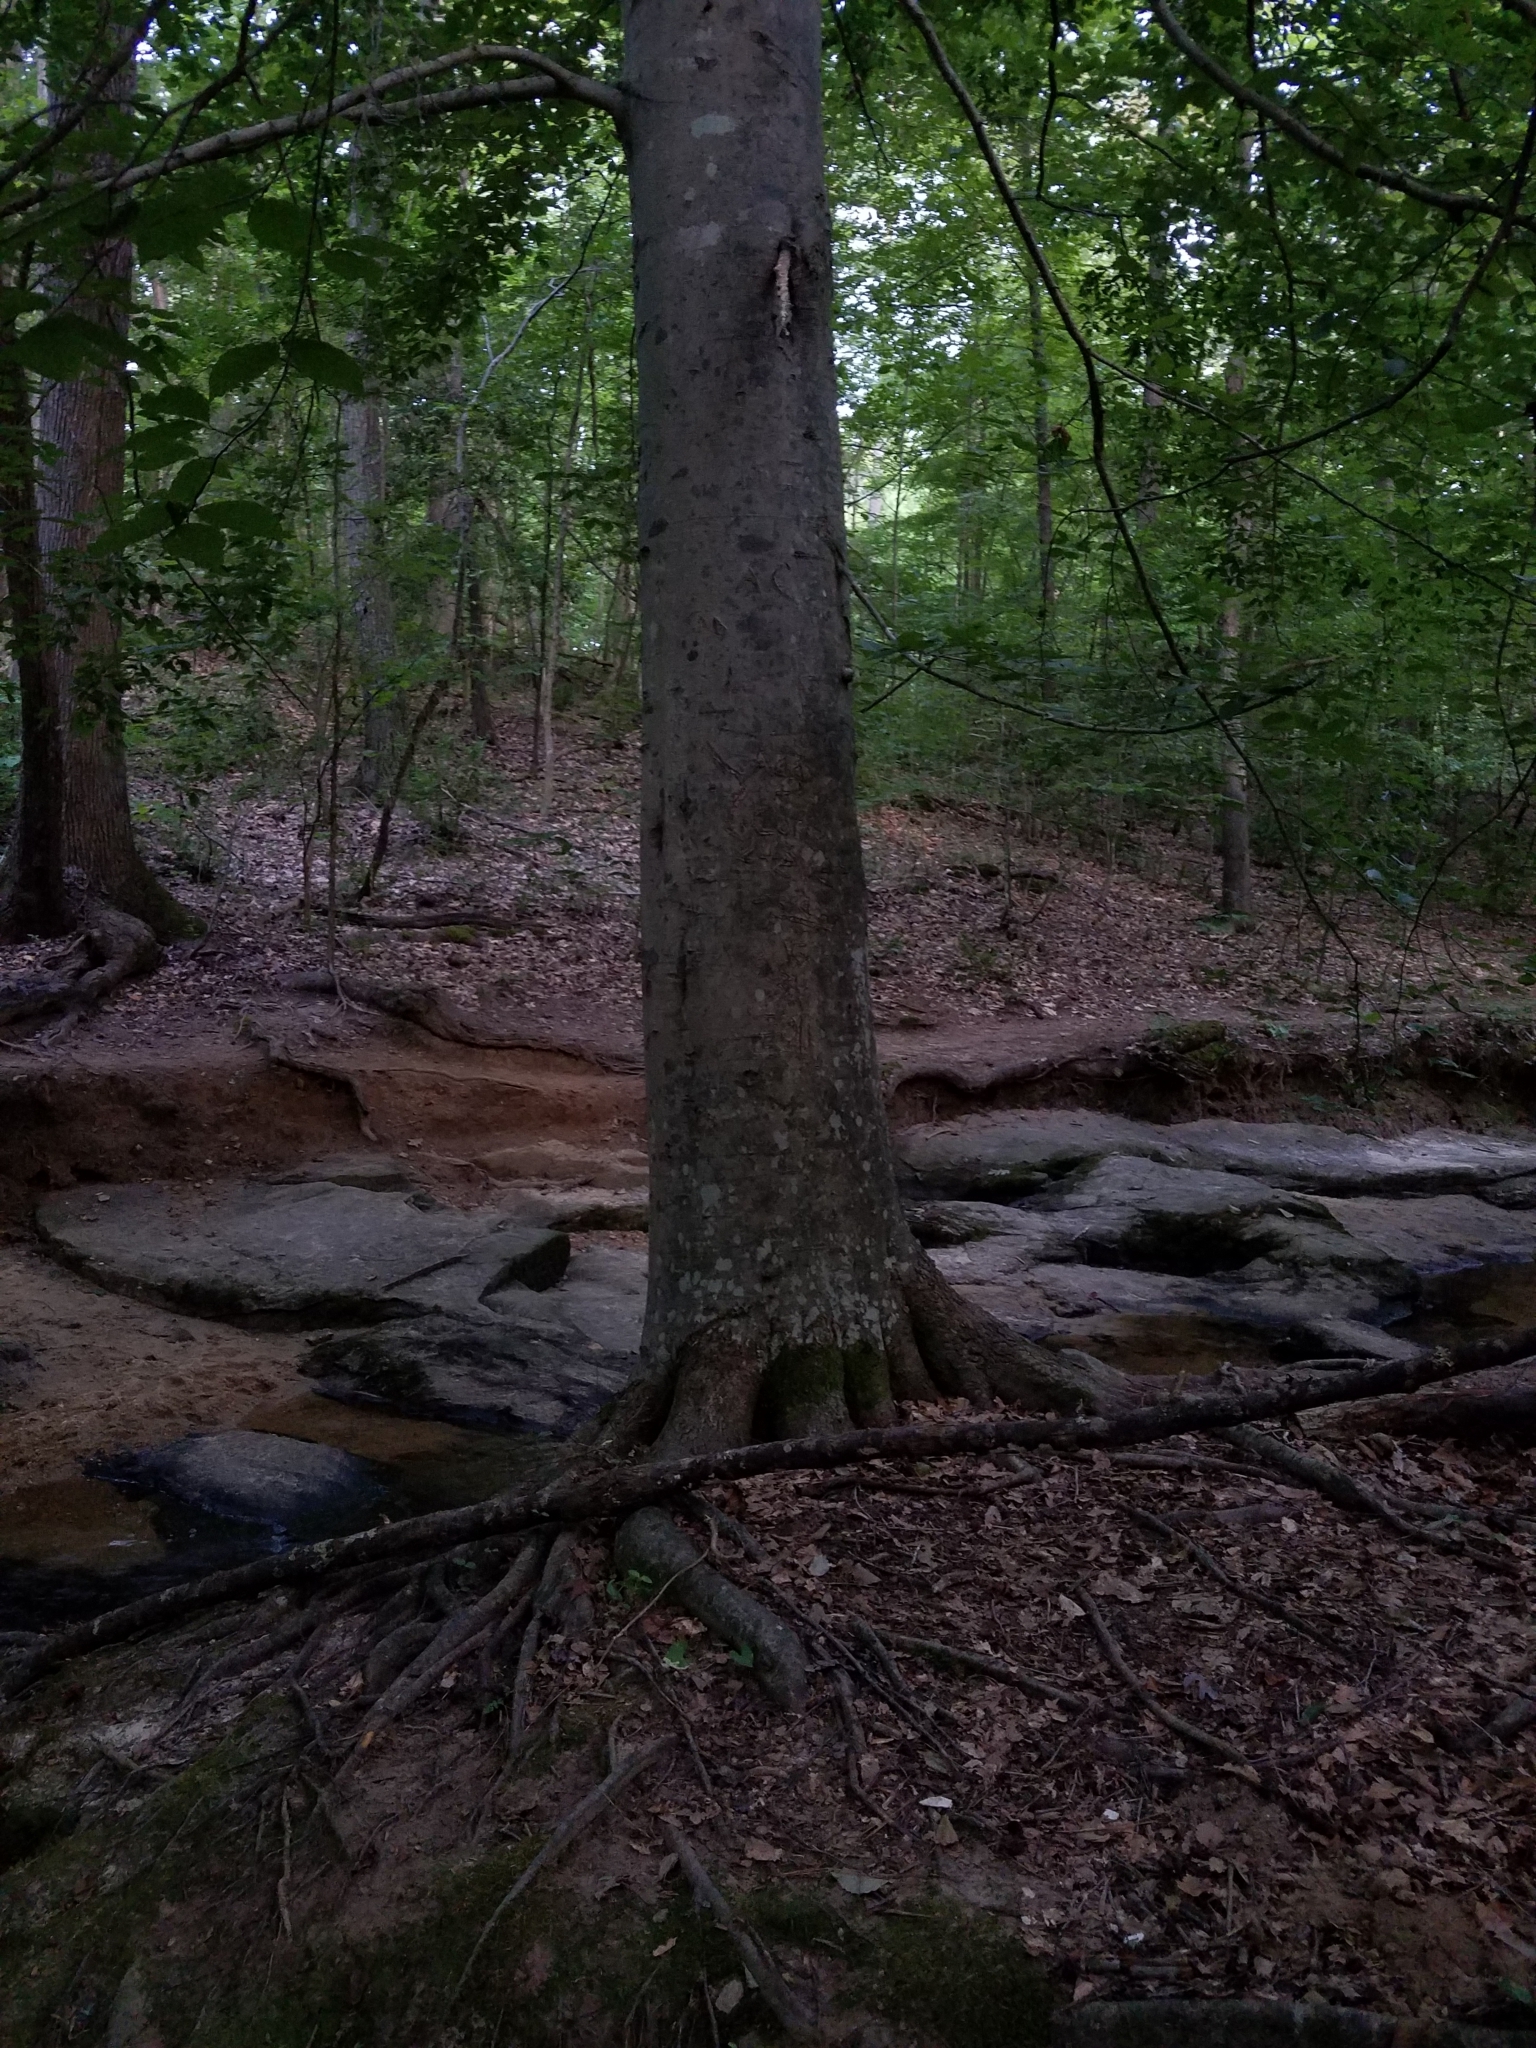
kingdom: Plantae
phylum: Tracheophyta
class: Magnoliopsida
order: Fagales
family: Fagaceae
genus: Fagus
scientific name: Fagus grandifolia
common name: American beech
